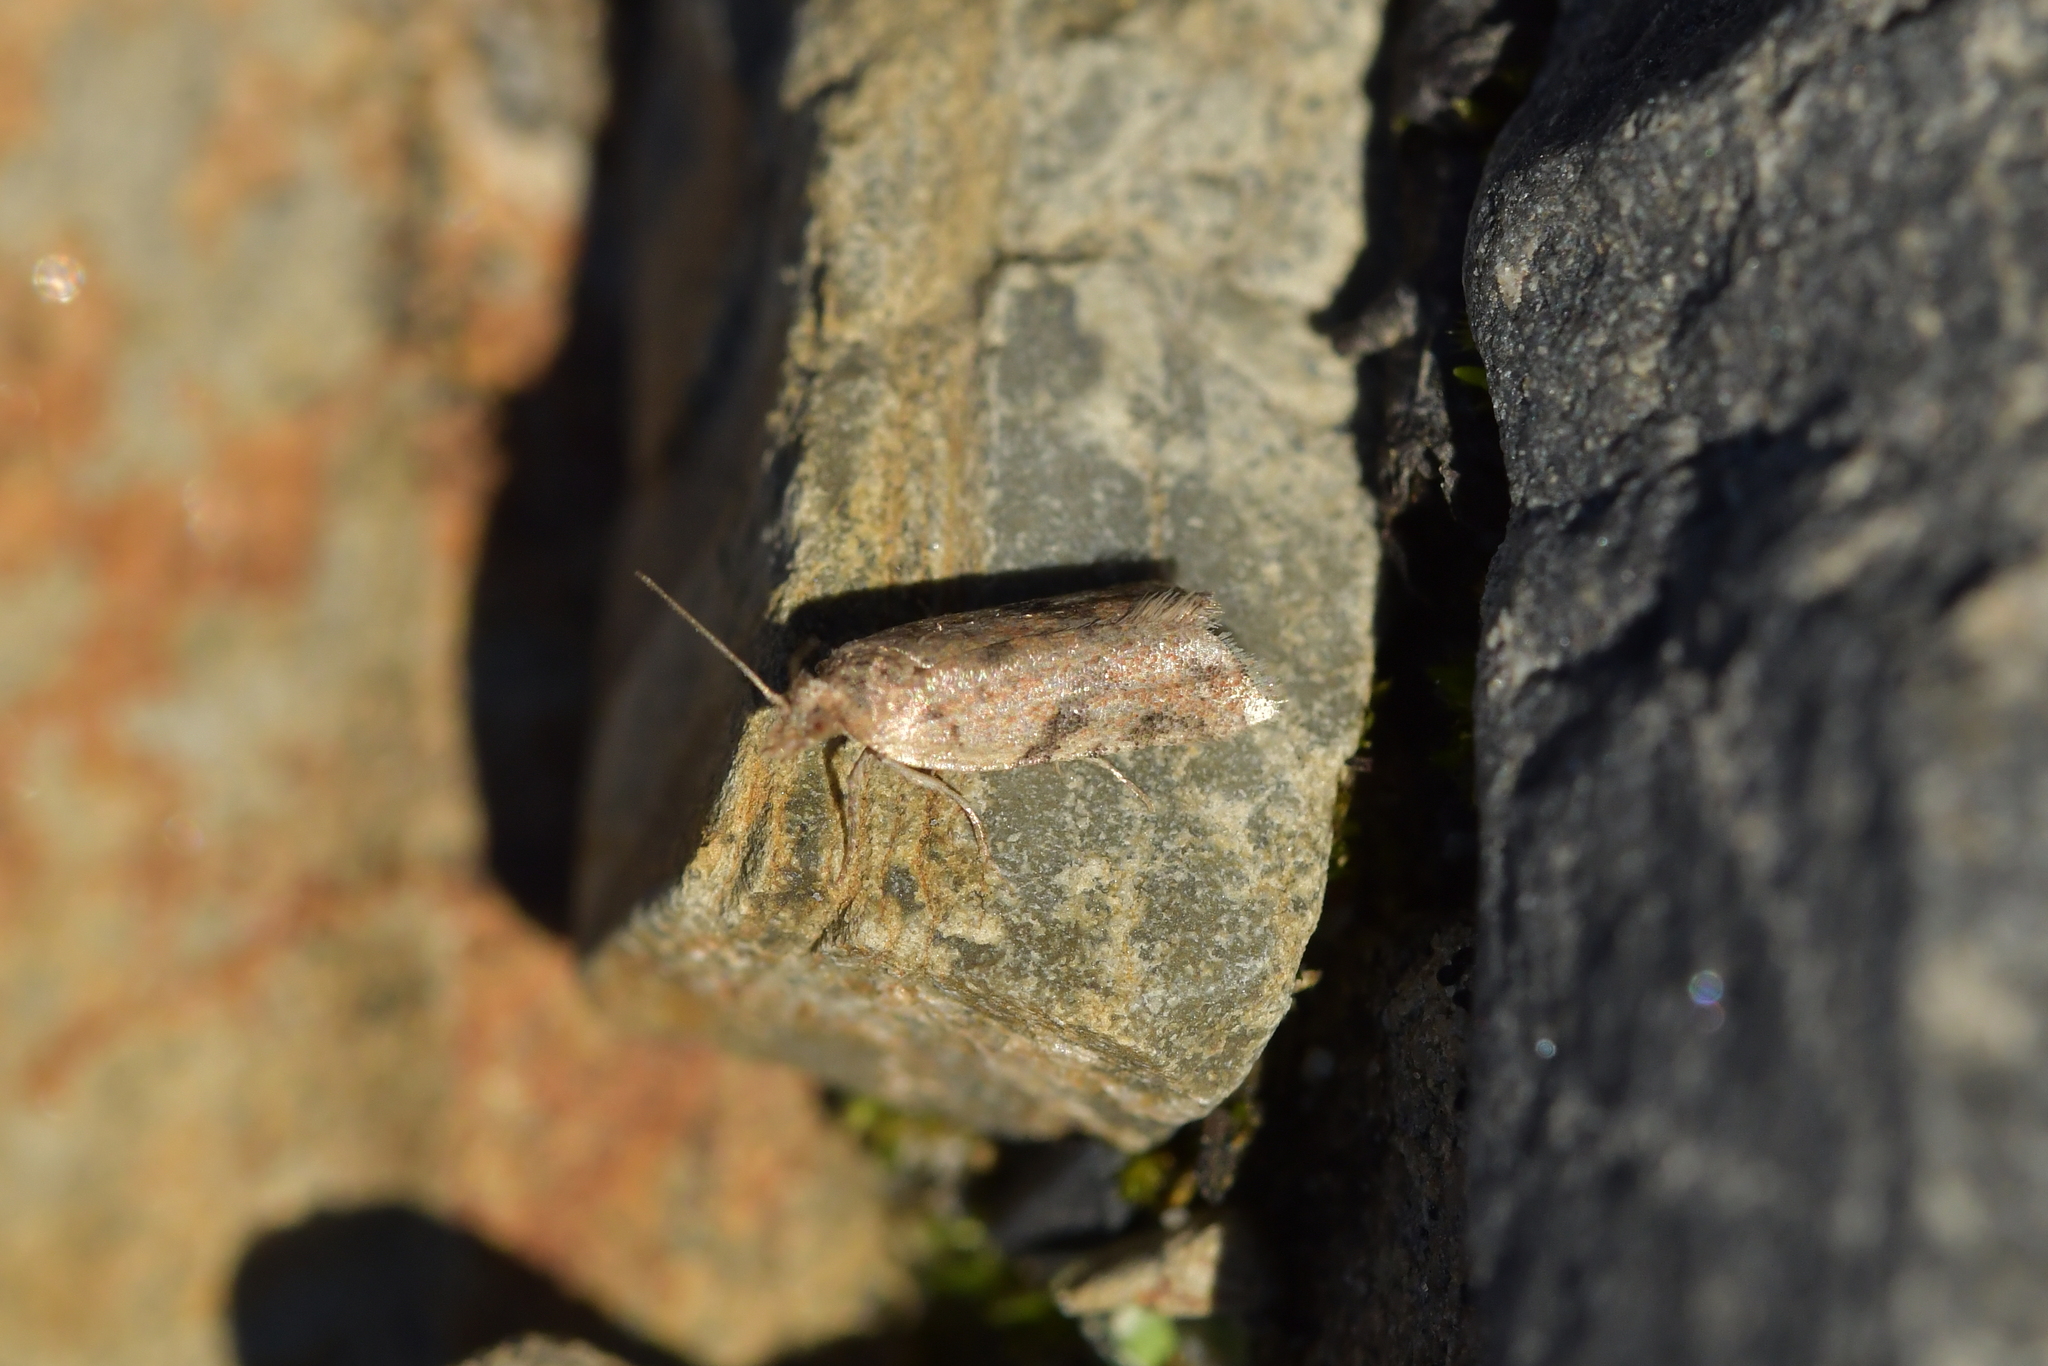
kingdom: Animalia
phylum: Arthropoda
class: Insecta
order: Lepidoptera
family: Tortricidae
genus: Capua
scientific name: Capua semiferana
